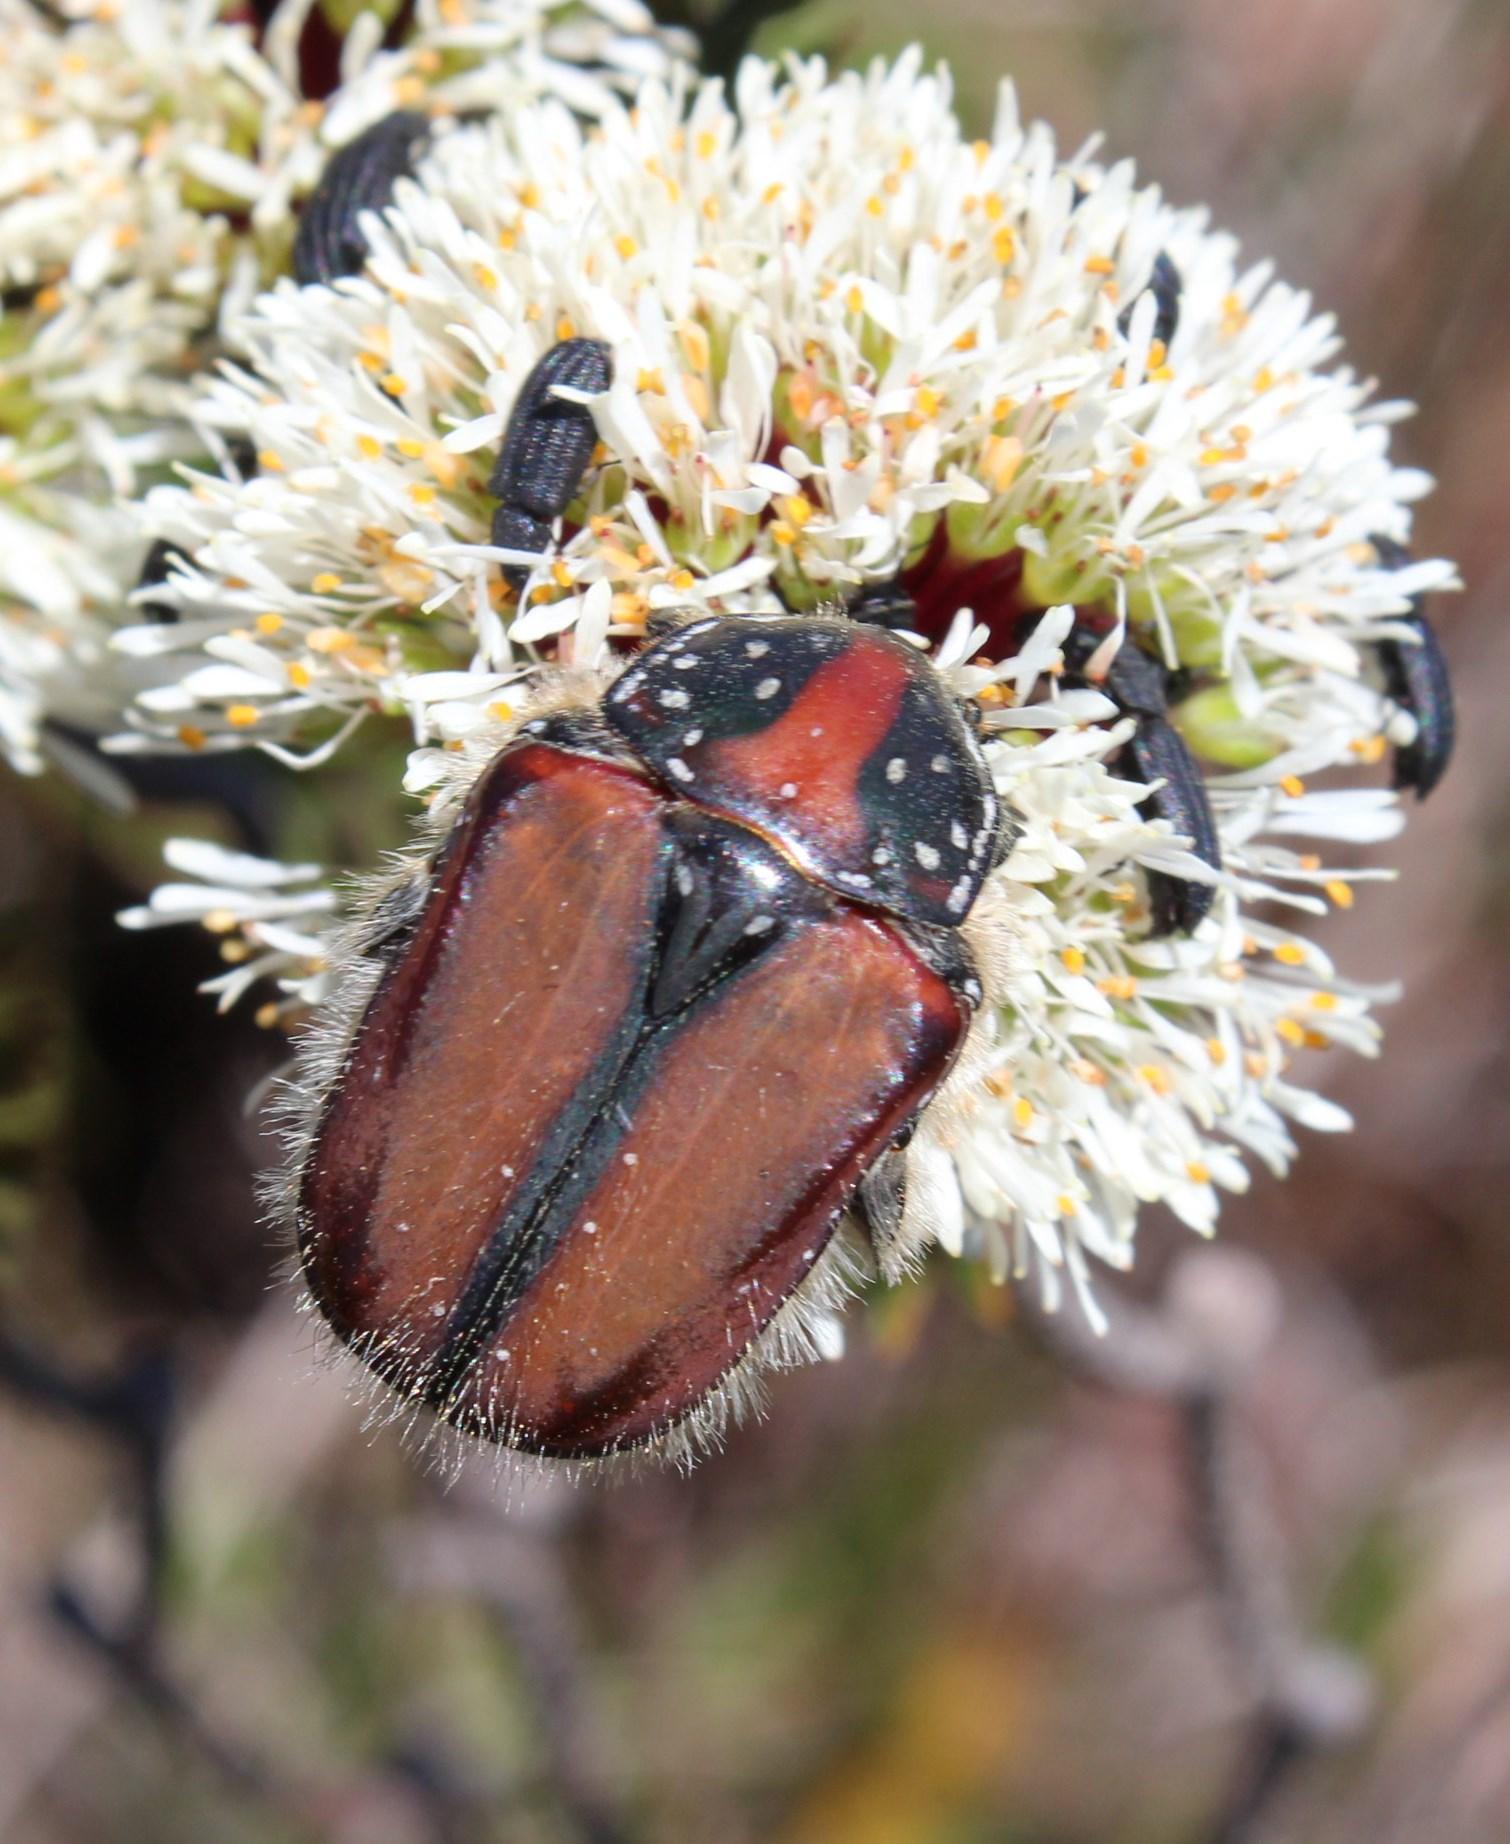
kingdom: Animalia
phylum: Arthropoda
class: Insecta
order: Coleoptera
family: Scarabaeidae
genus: Trichostetha
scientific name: Trichostetha capensis
